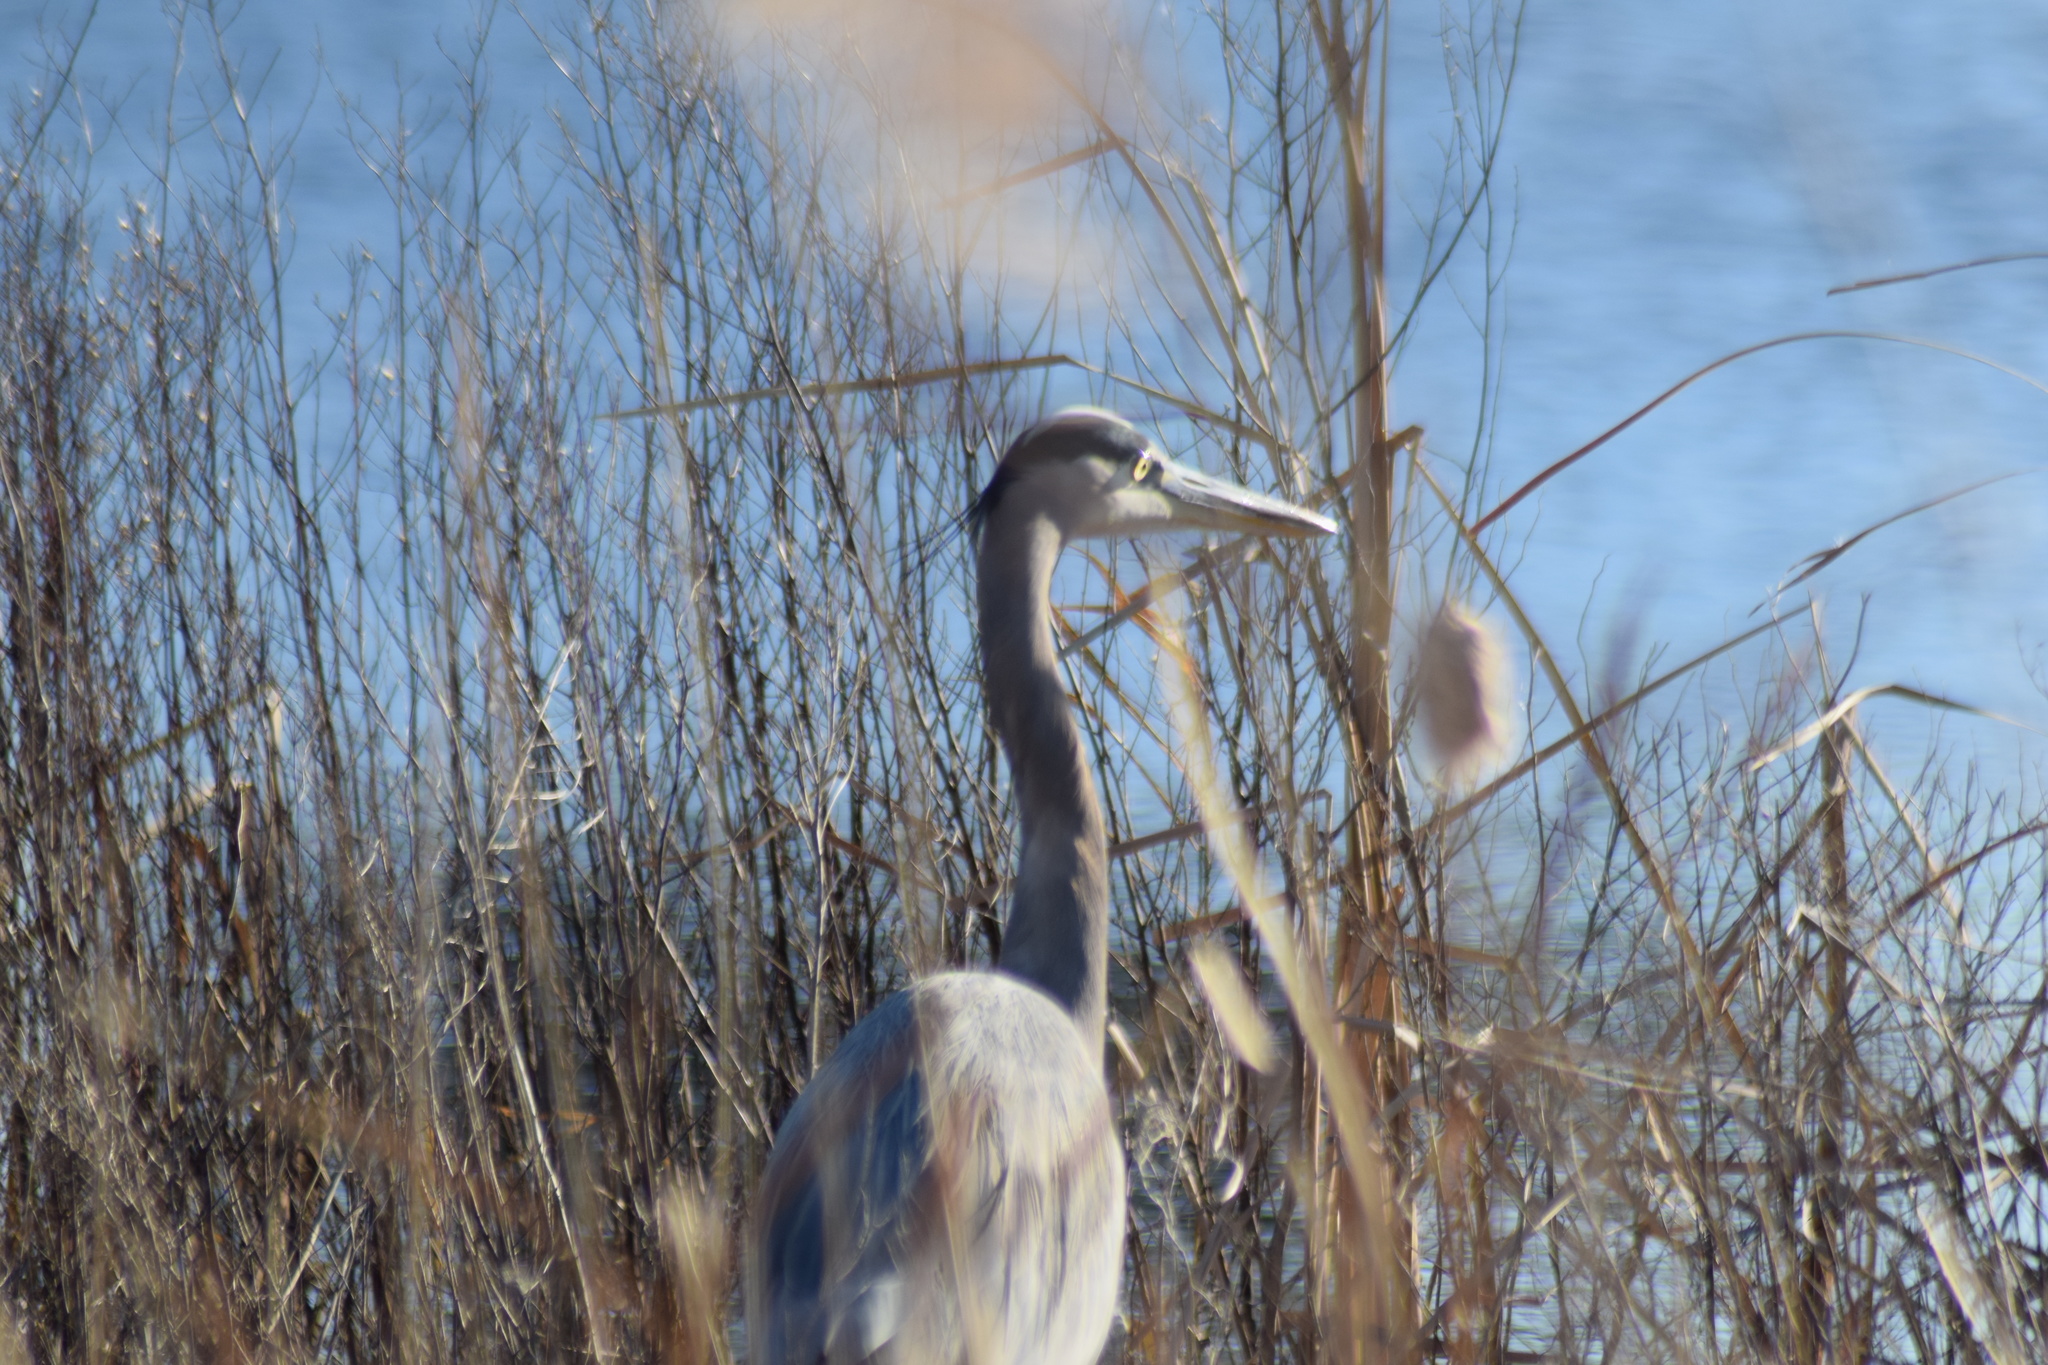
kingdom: Animalia
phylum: Chordata
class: Aves
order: Pelecaniformes
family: Ardeidae
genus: Ardea
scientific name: Ardea herodias
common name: Great blue heron
